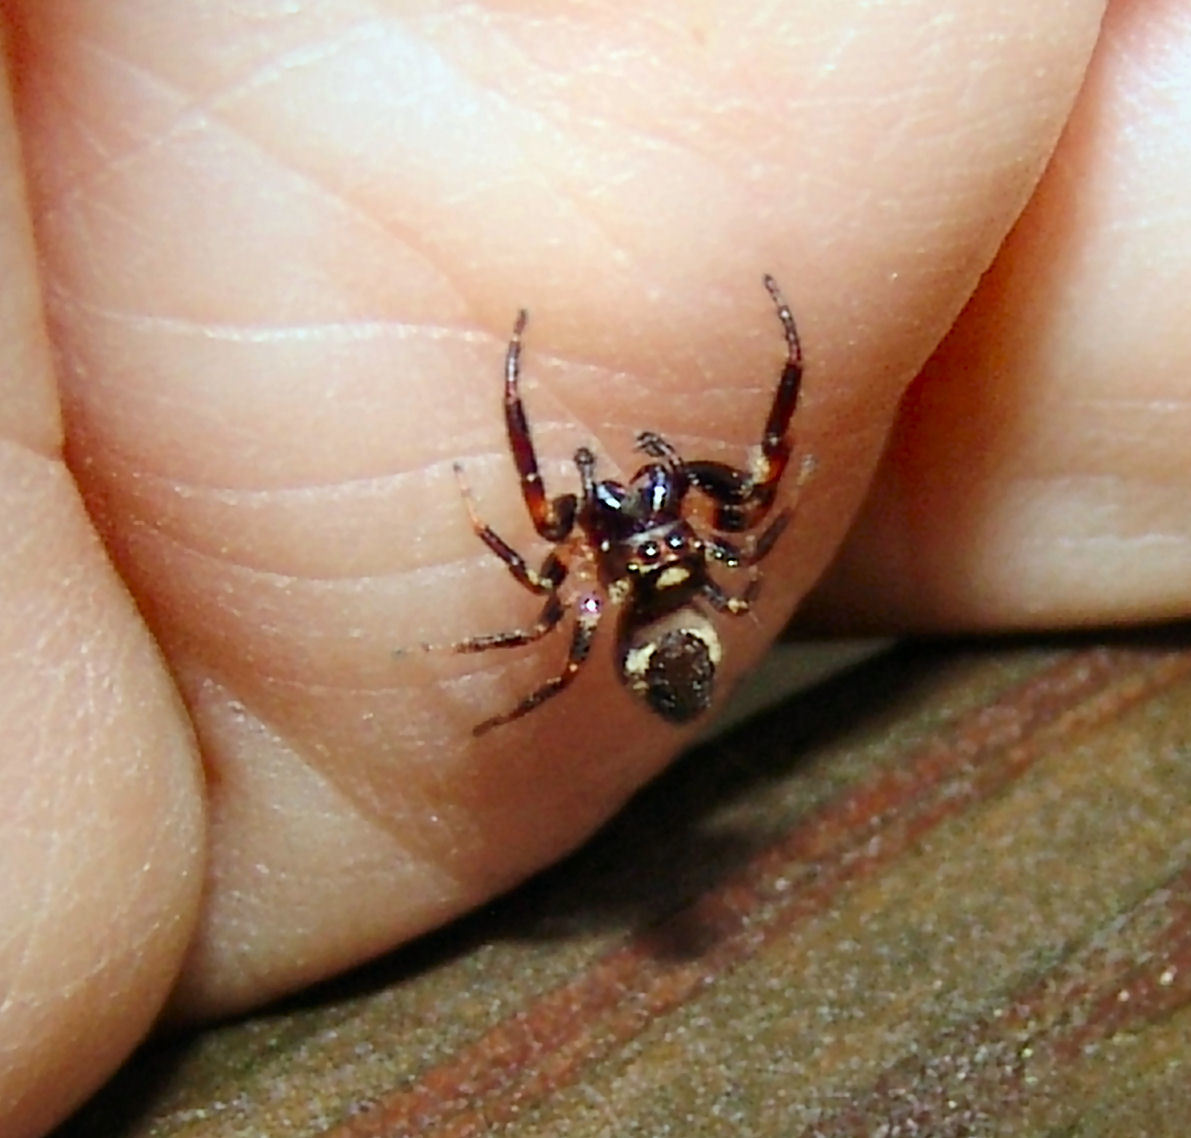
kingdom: Animalia
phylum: Arthropoda
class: Arachnida
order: Araneae
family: Salticidae
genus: Eris
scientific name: Eris militaris
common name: Bronze jumper
